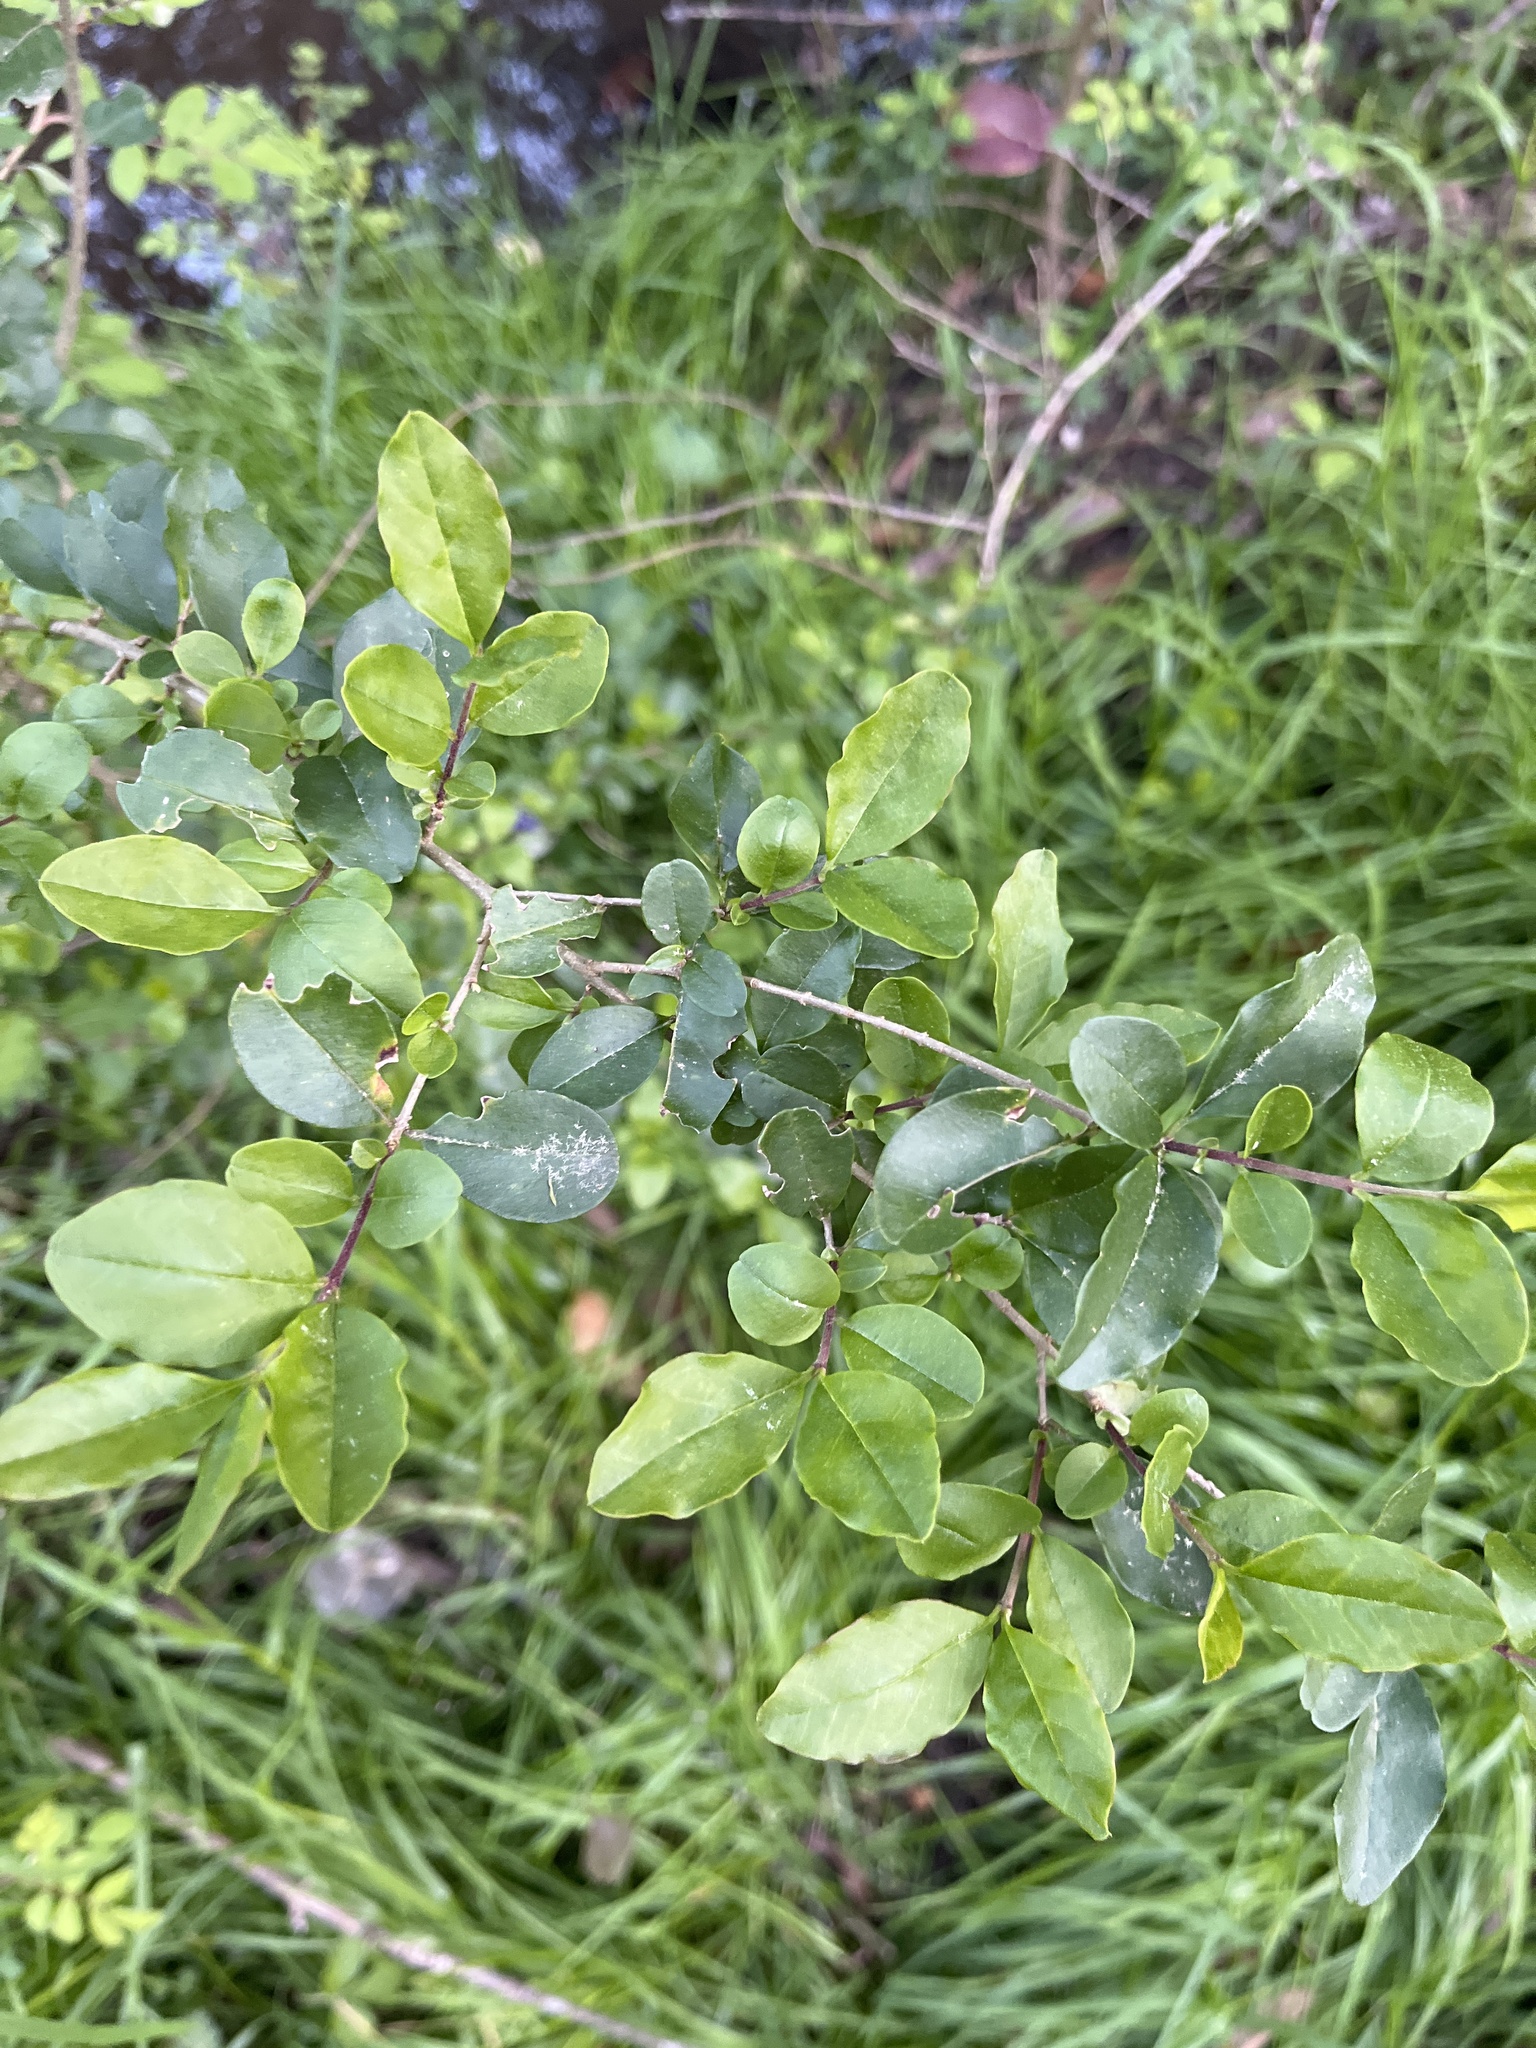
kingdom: Plantae
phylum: Tracheophyta
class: Magnoliopsida
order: Lamiales
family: Oleaceae
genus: Ligustrum
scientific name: Ligustrum sinense
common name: Chinese privet
